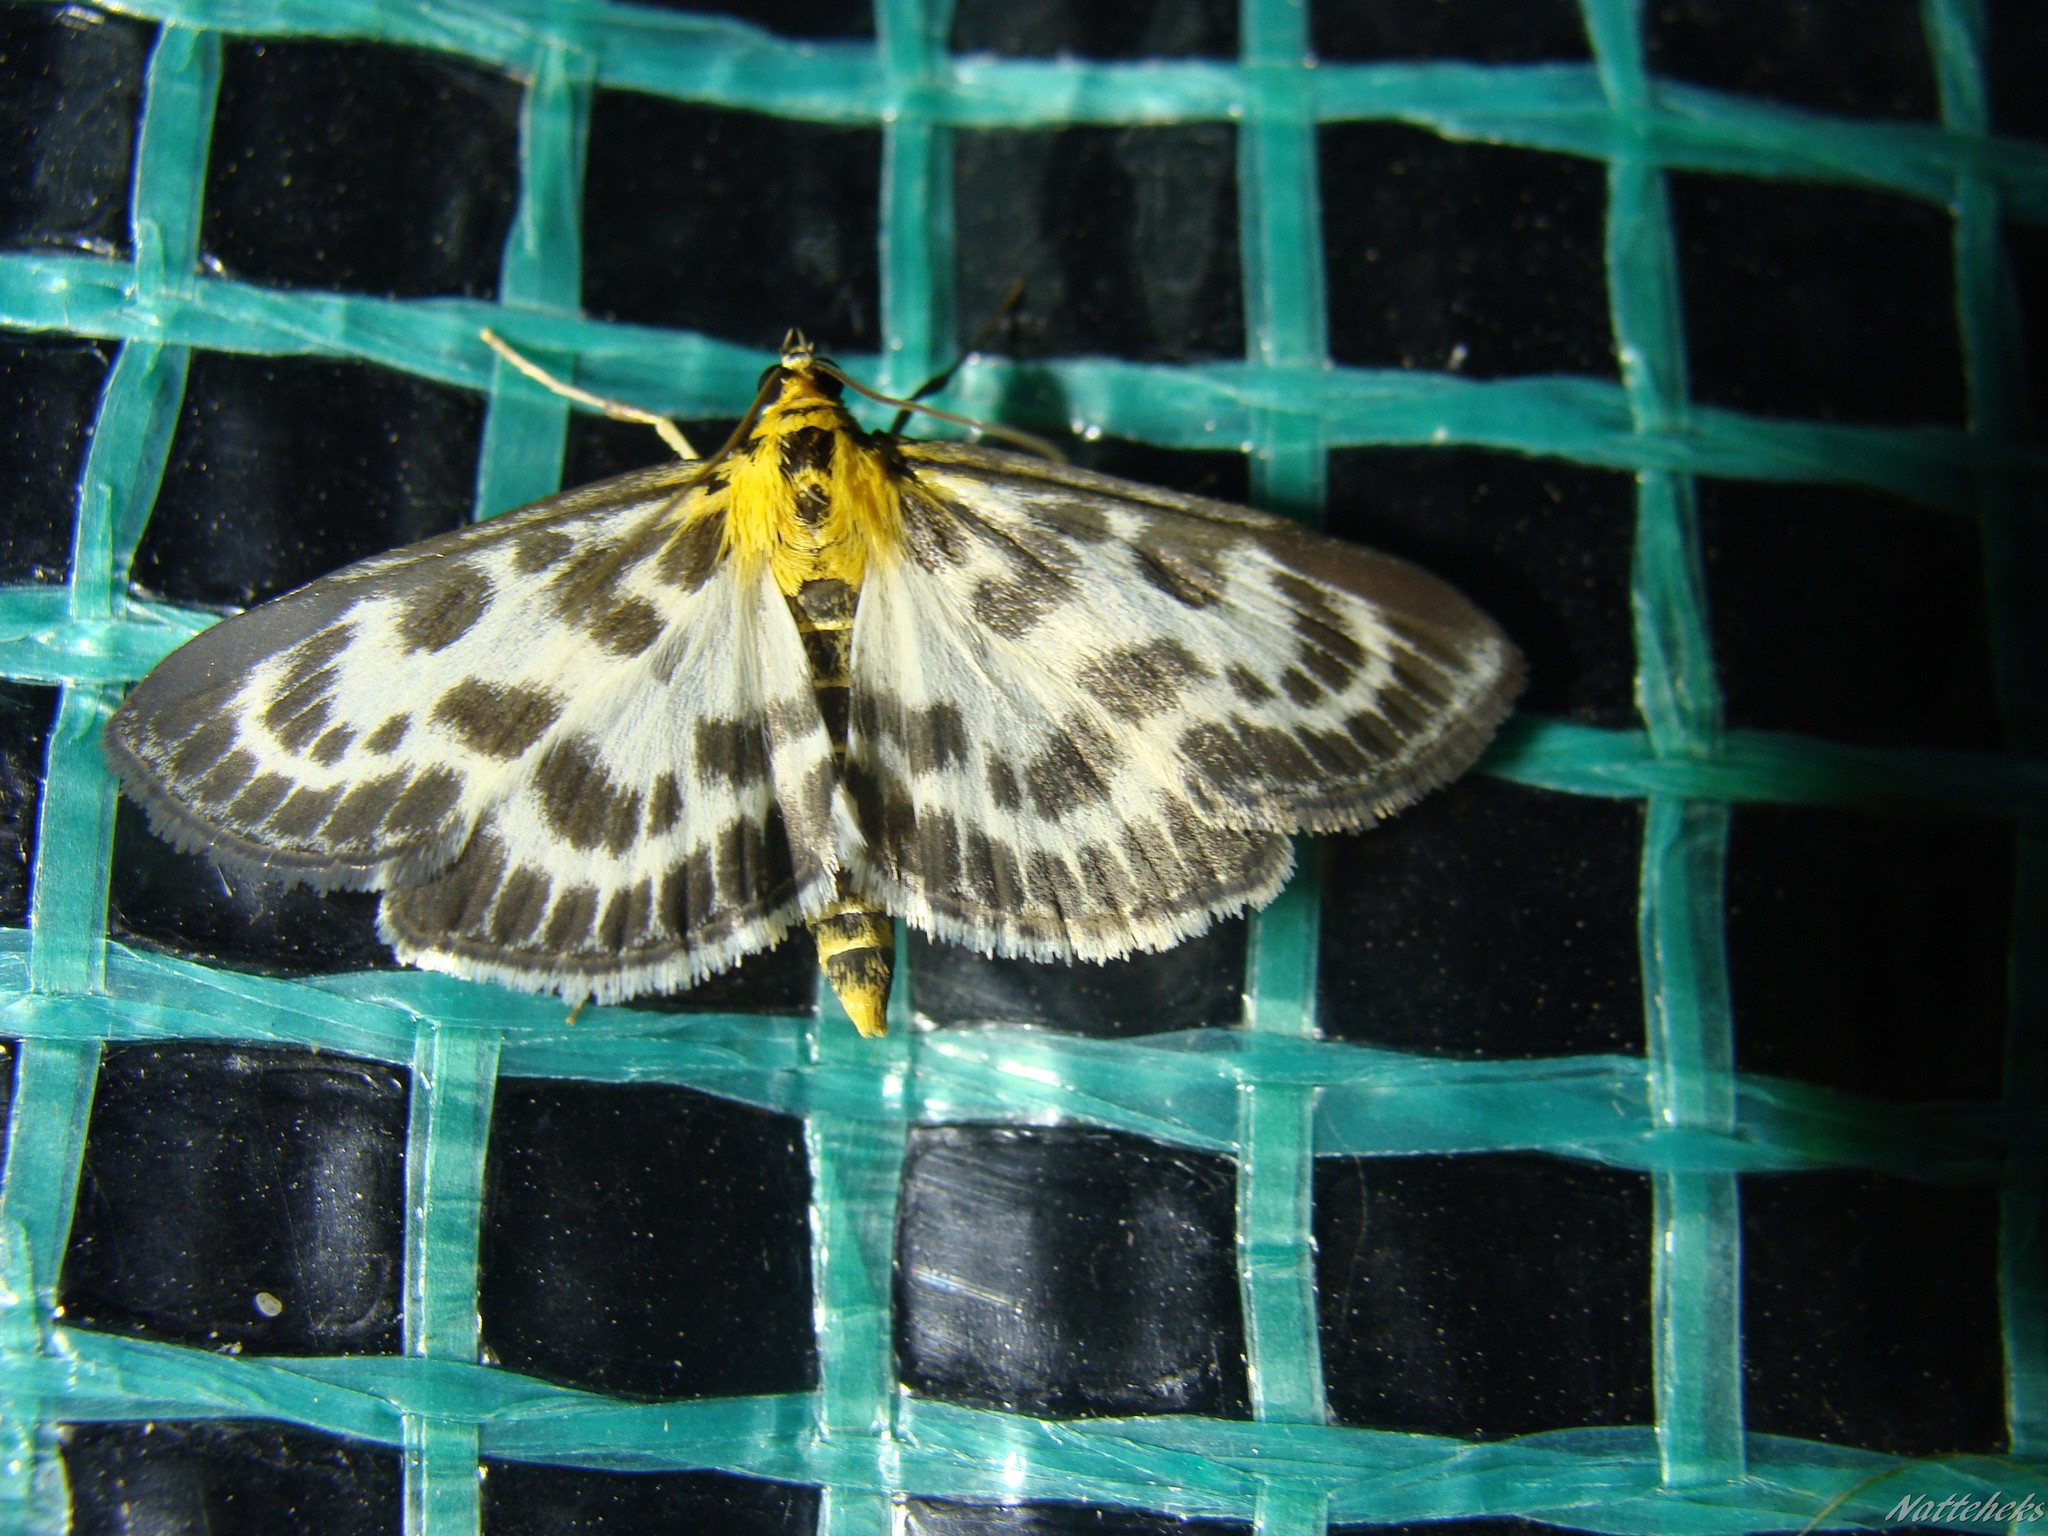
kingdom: Animalia
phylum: Arthropoda
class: Insecta
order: Lepidoptera
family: Crambidae
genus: Anania
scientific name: Anania hortulata
